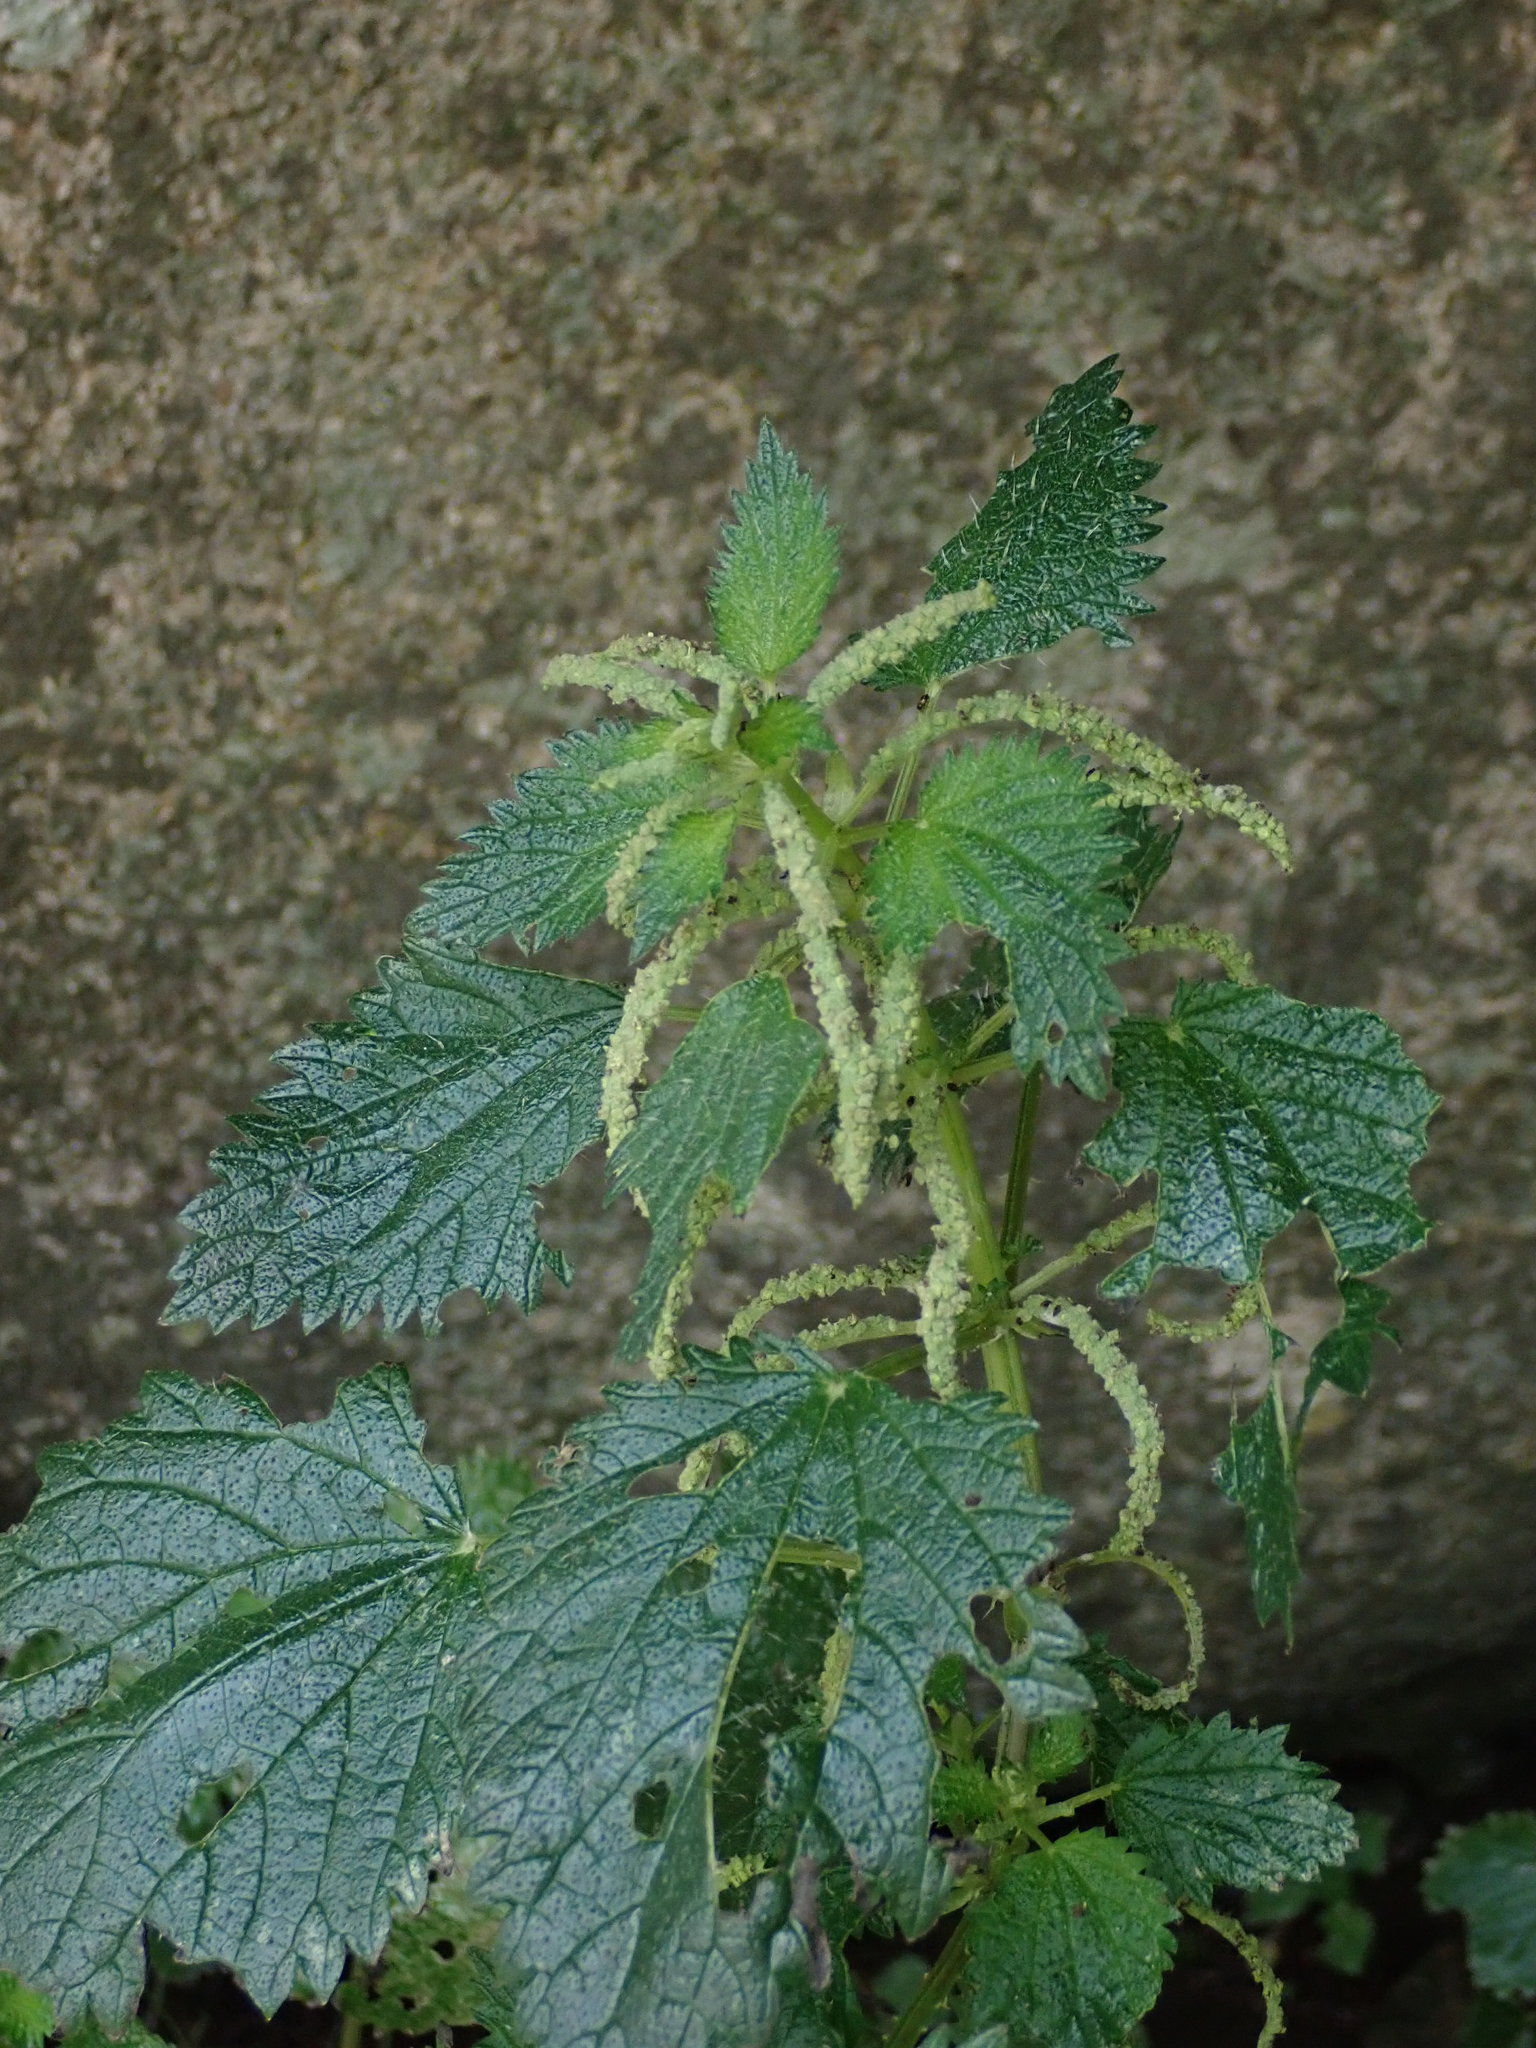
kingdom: Plantae
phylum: Tracheophyta
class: Magnoliopsida
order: Rosales
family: Urticaceae
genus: Urtica
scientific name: Urtica membranacea
